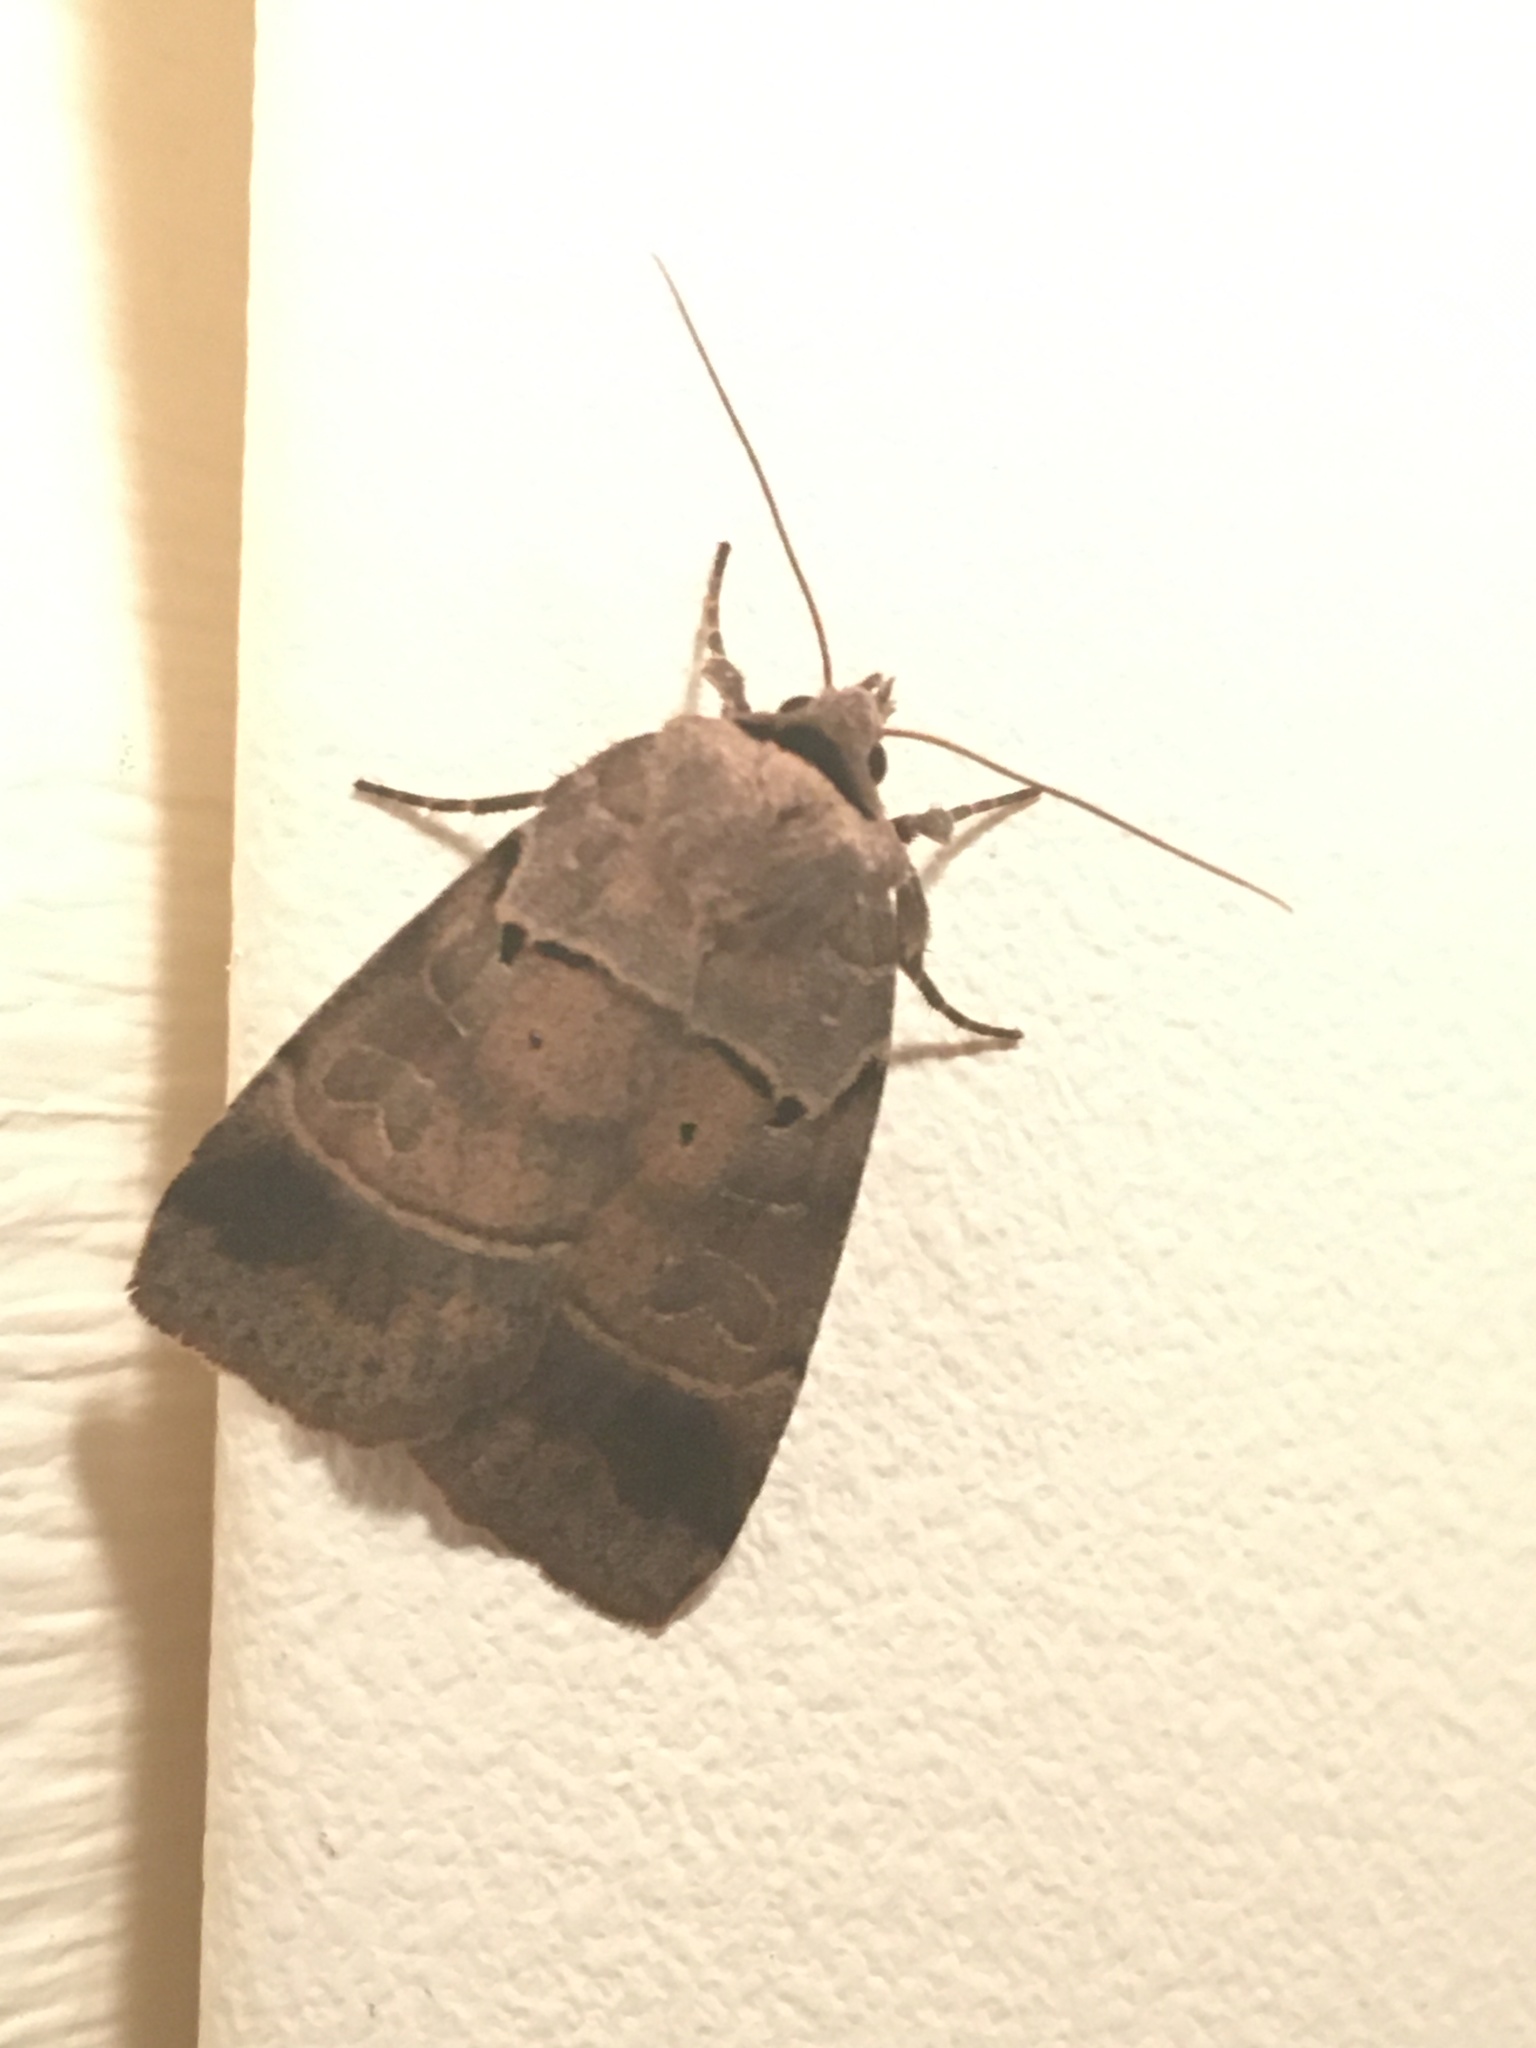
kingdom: Animalia
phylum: Arthropoda
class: Insecta
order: Lepidoptera
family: Noctuidae
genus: Agnorisma
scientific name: Agnorisma badinodis
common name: Pale-banded dart
